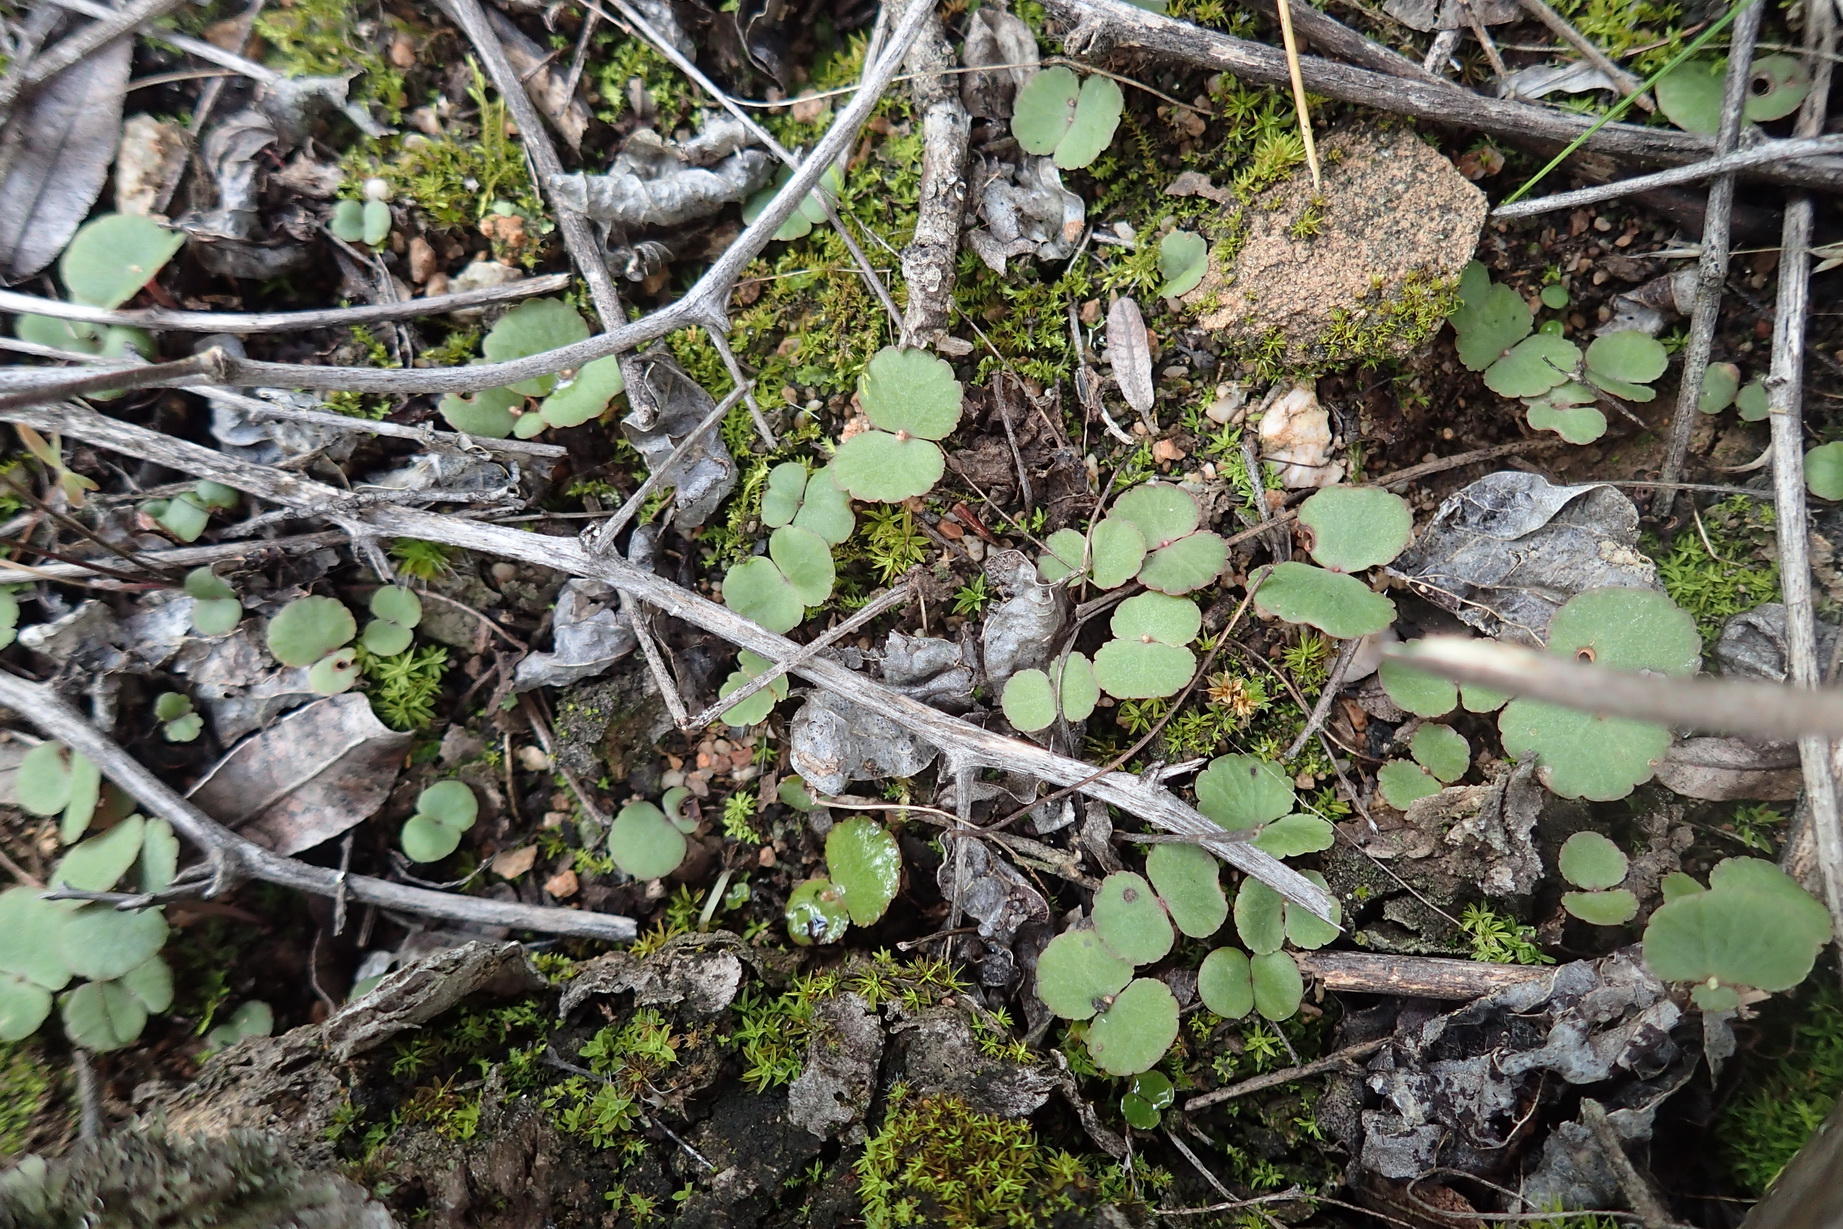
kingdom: Plantae
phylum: Tracheophyta
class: Magnoliopsida
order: Saxifragales
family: Crassulaceae
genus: Crassula
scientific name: Crassula umbella
